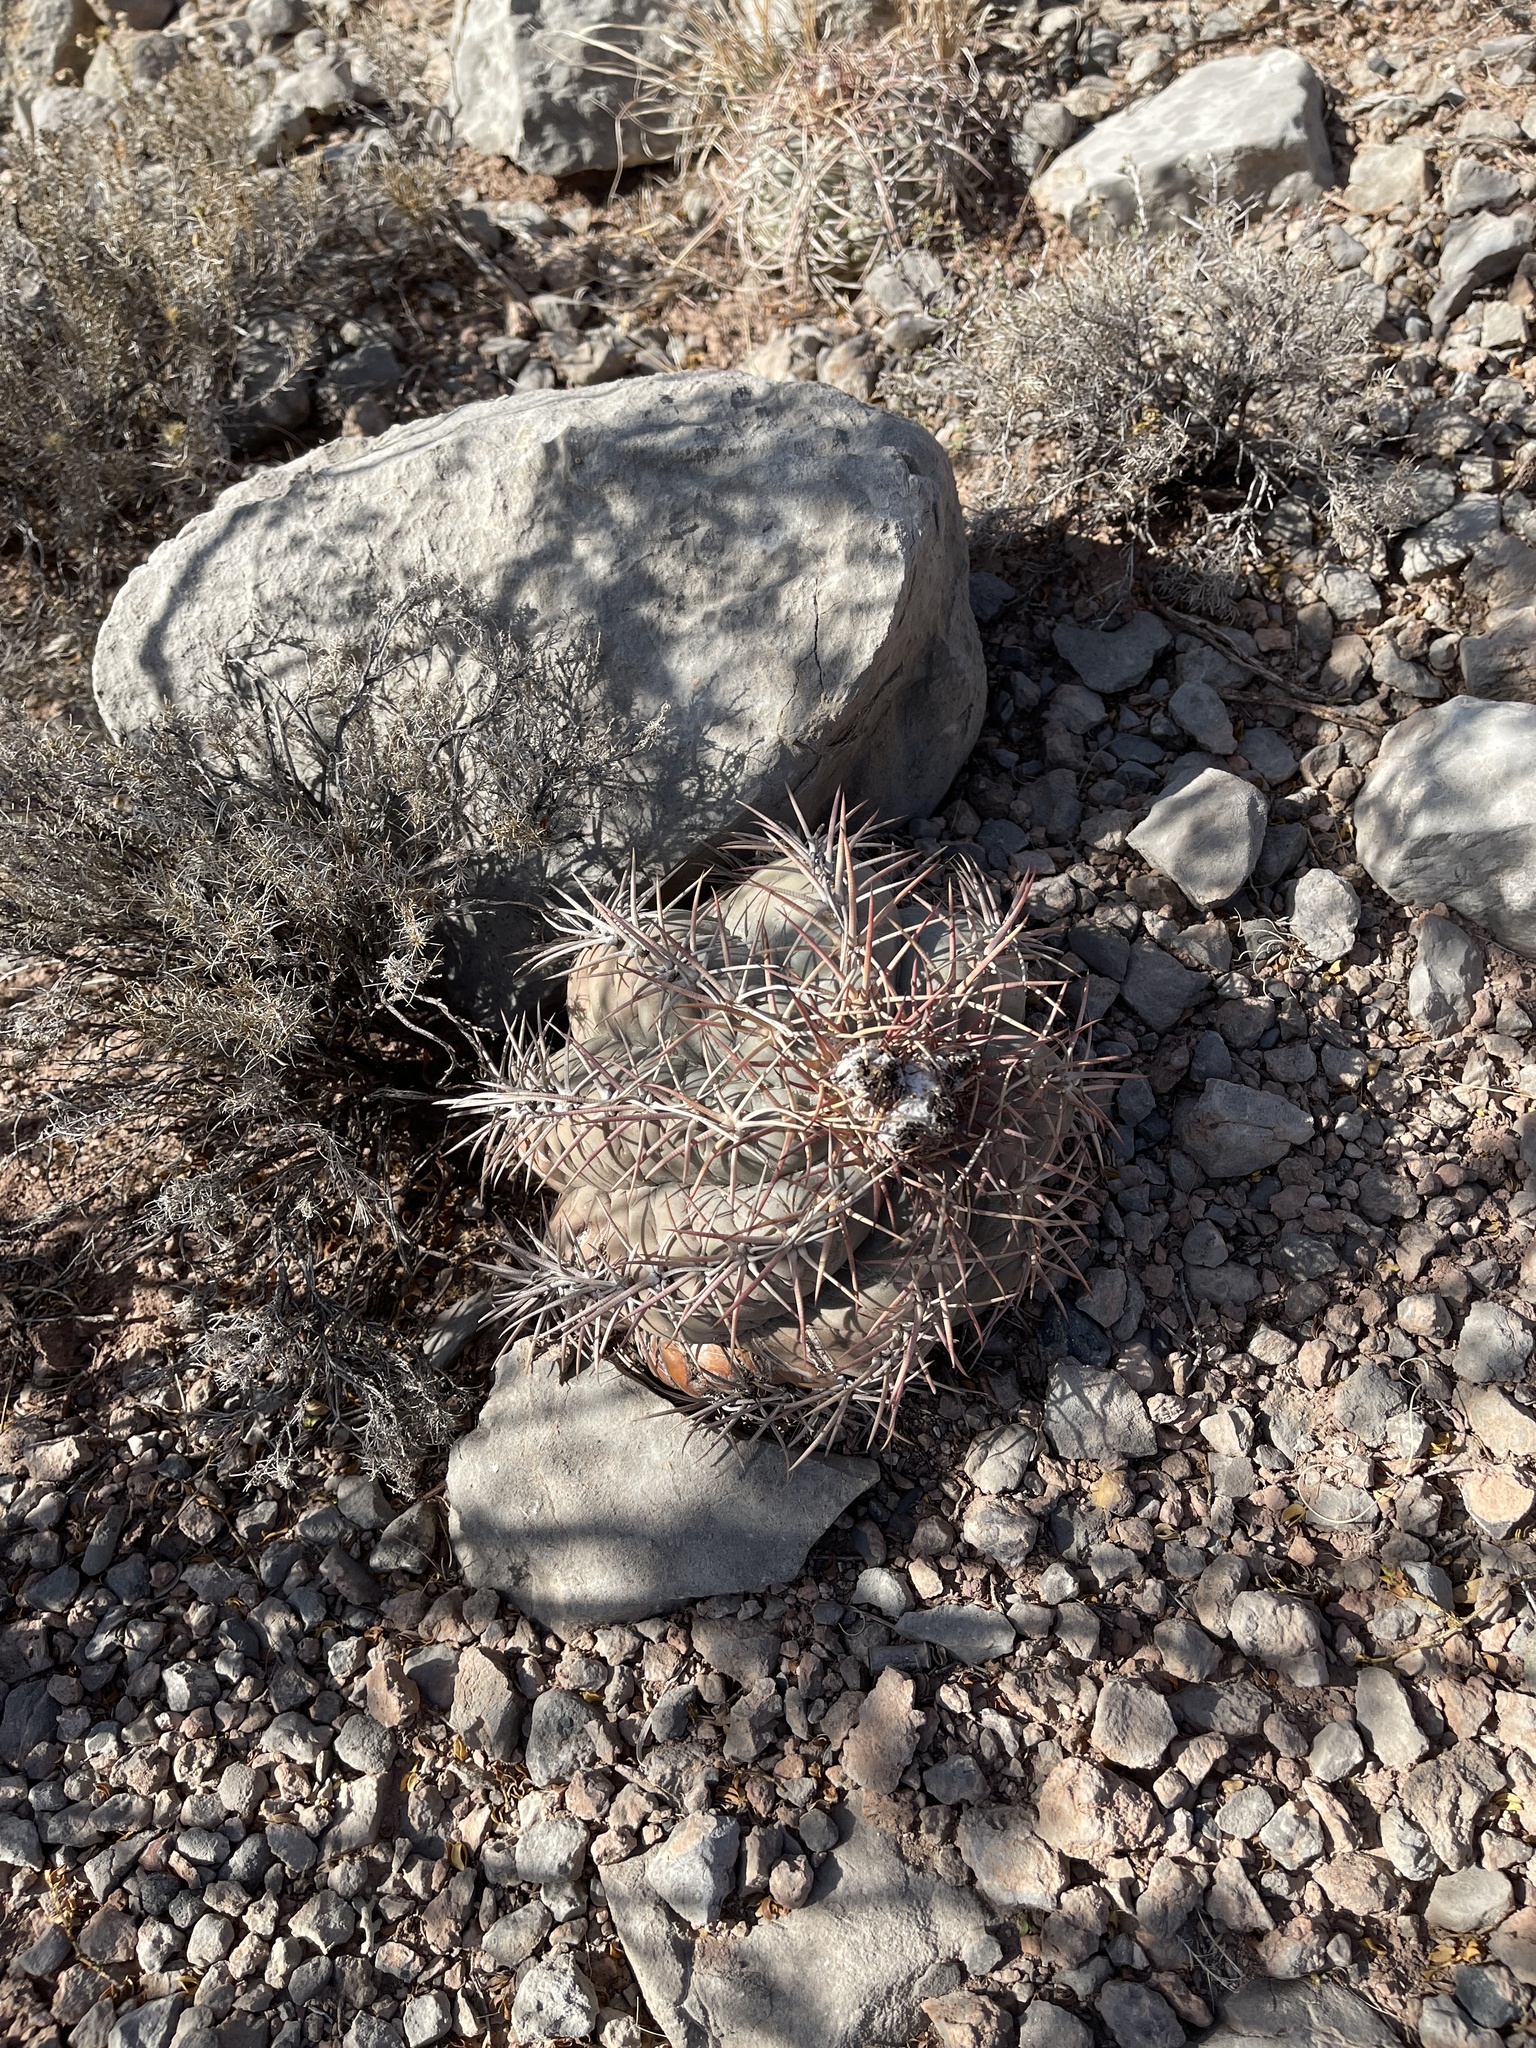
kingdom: Plantae
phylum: Tracheophyta
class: Magnoliopsida
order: Caryophyllales
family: Cactaceae
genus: Echinocactus
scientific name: Echinocactus horizonthalonius
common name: Devilshead
